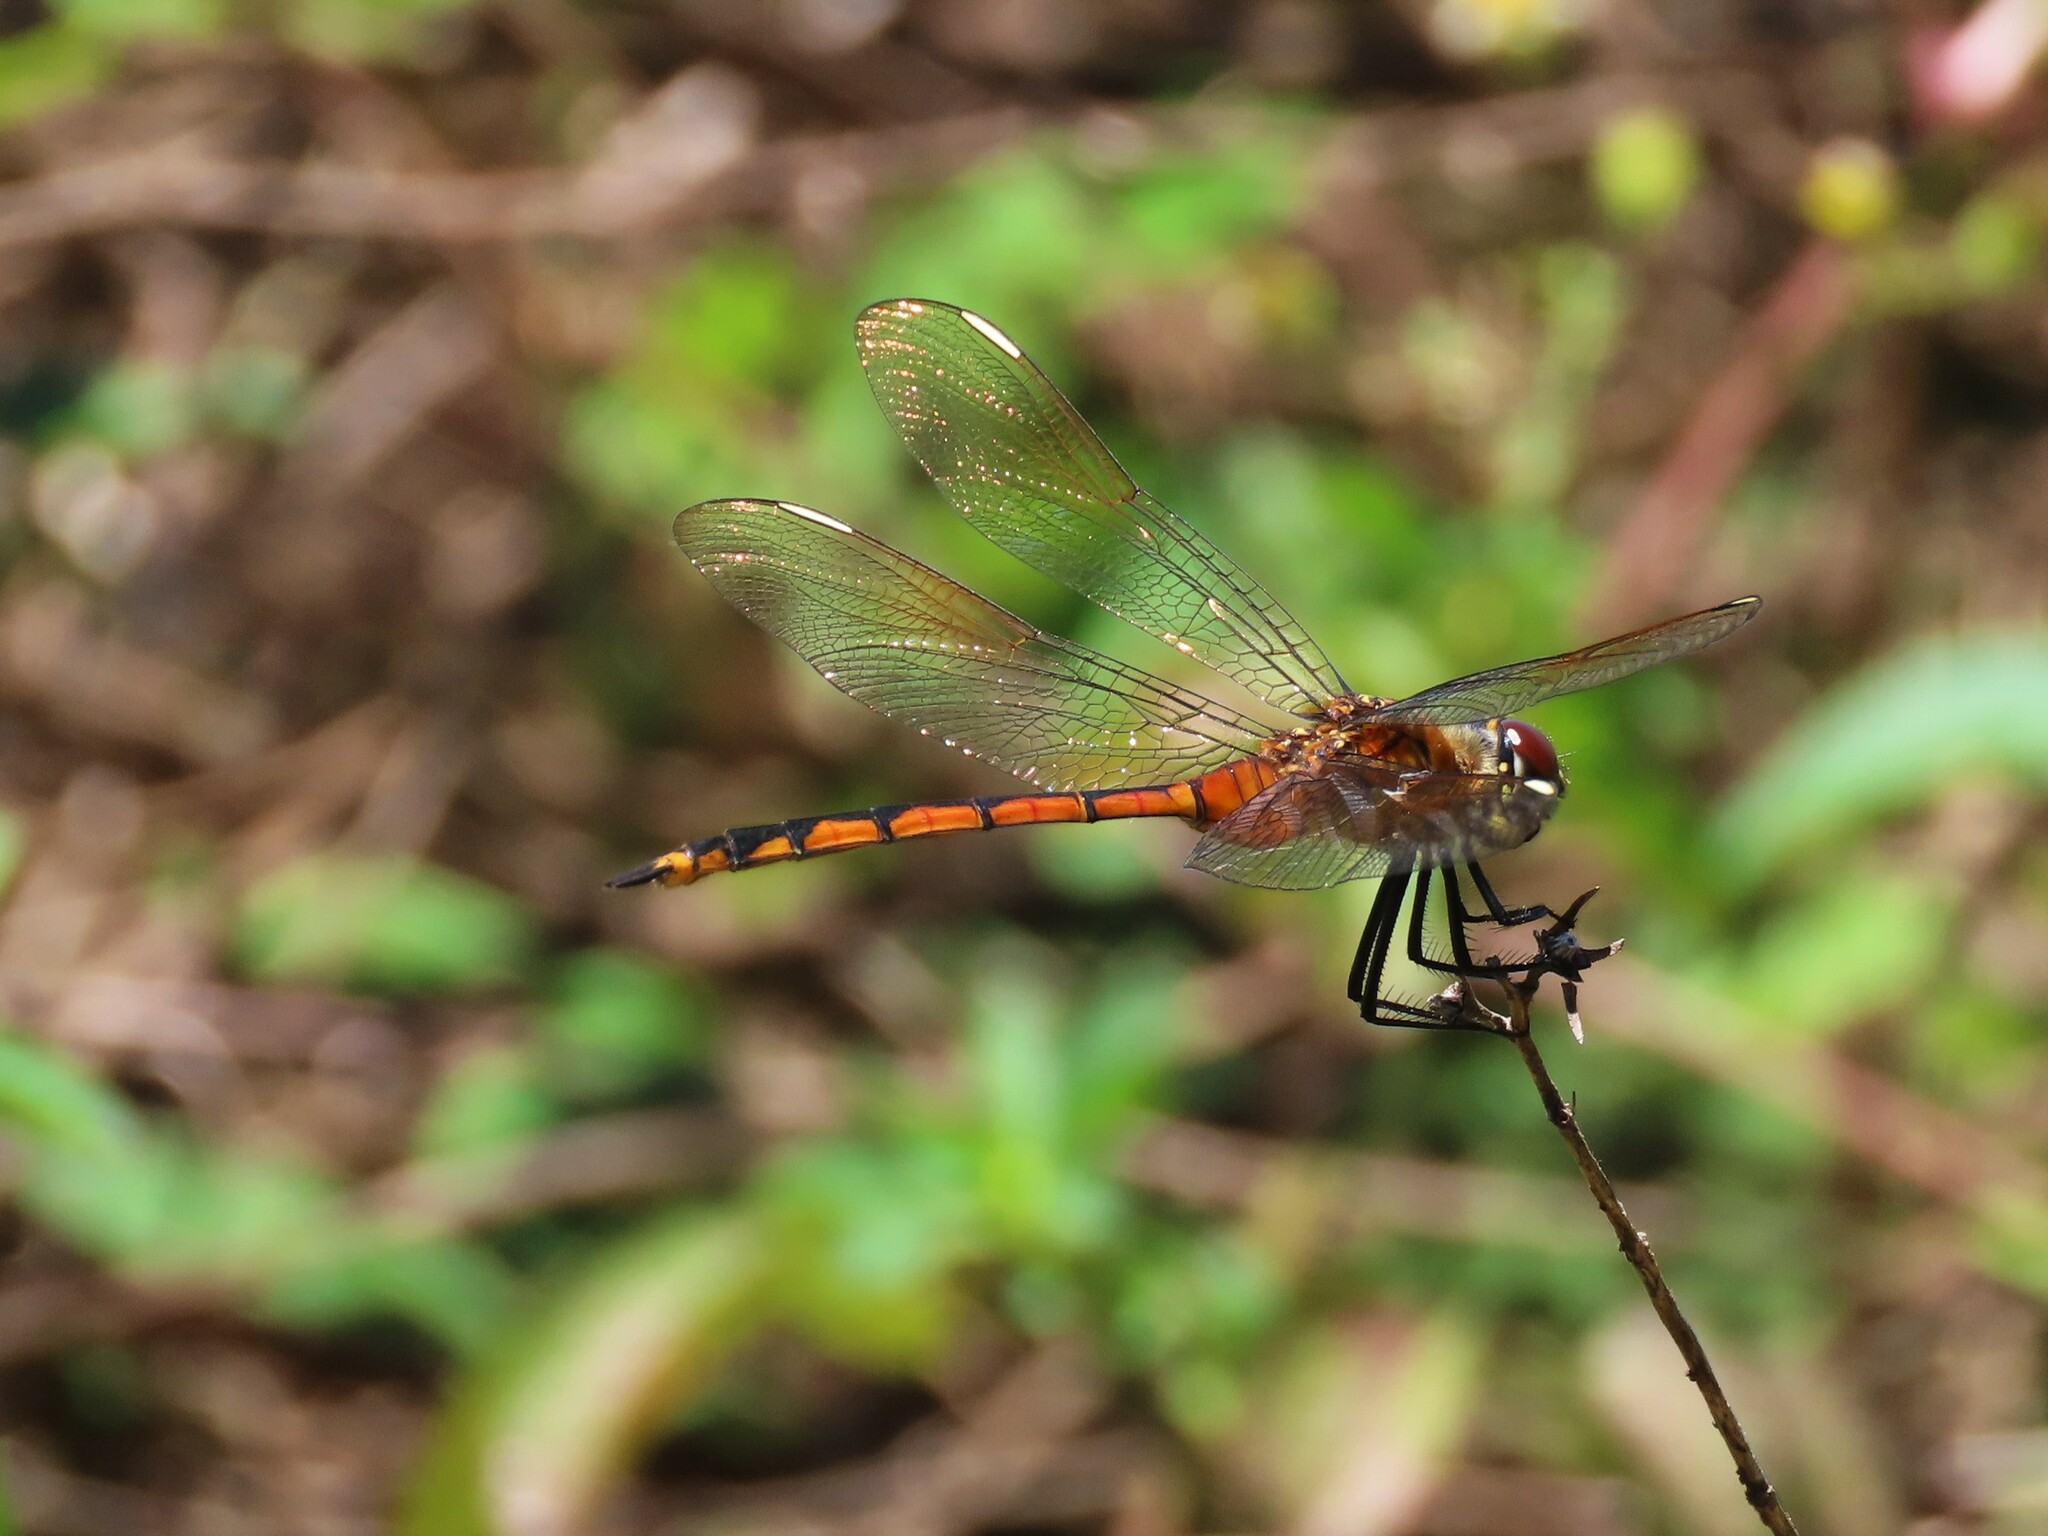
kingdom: Animalia
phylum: Arthropoda
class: Insecta
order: Odonata
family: Libellulidae
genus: Brachymesia
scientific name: Brachymesia gravida
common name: Four-spotted pennant
